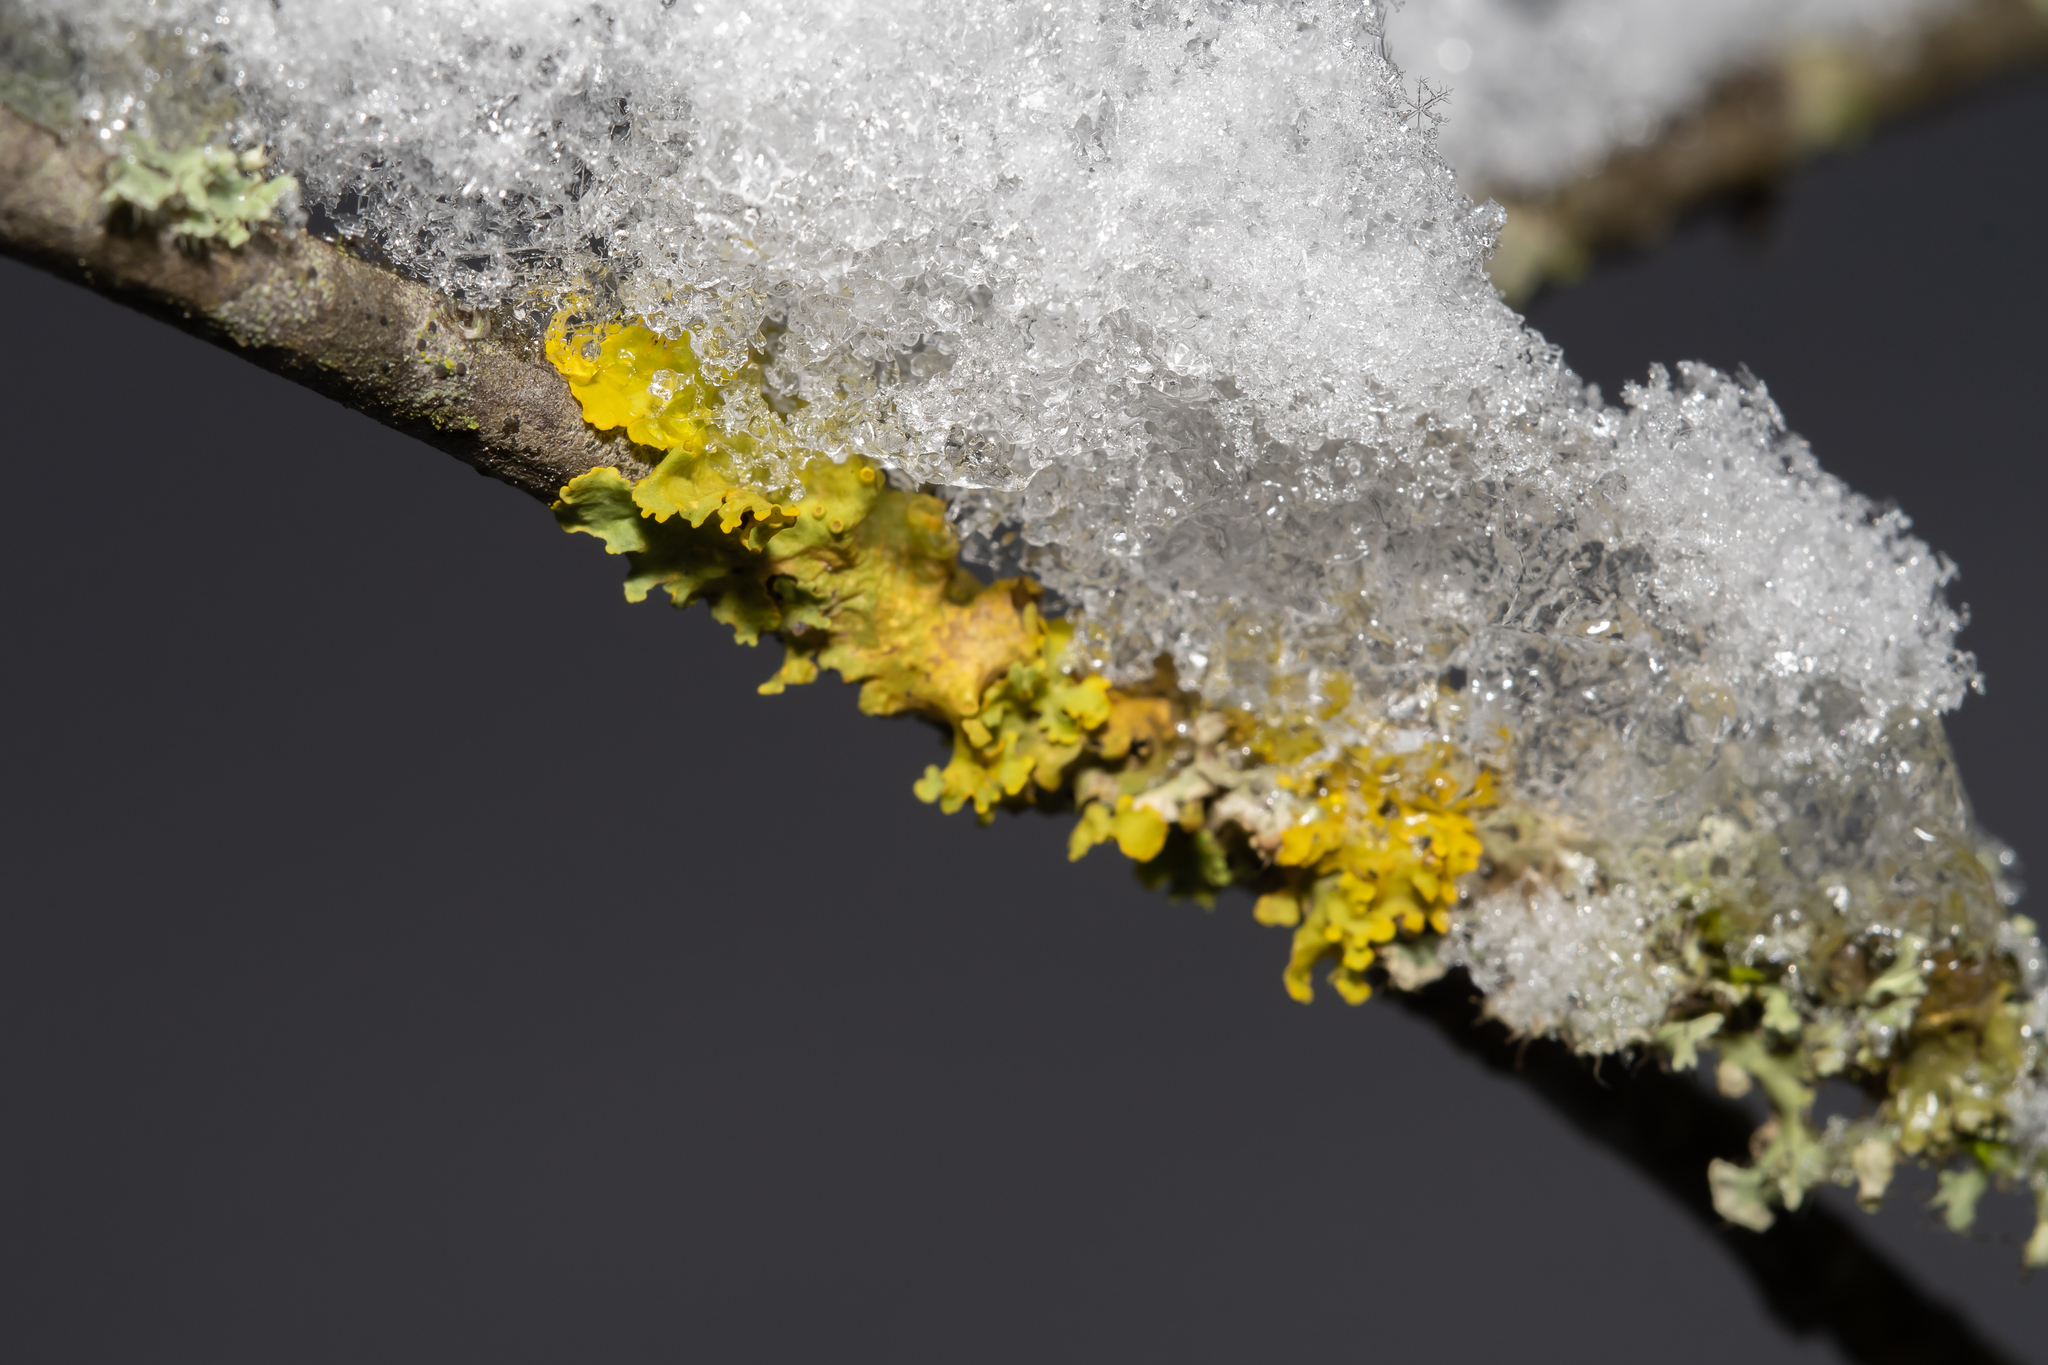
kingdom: Fungi
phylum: Ascomycota
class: Lecanoromycetes
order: Teloschistales
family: Teloschistaceae
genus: Xanthoria
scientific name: Xanthoria parietina
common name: Common orange lichen
